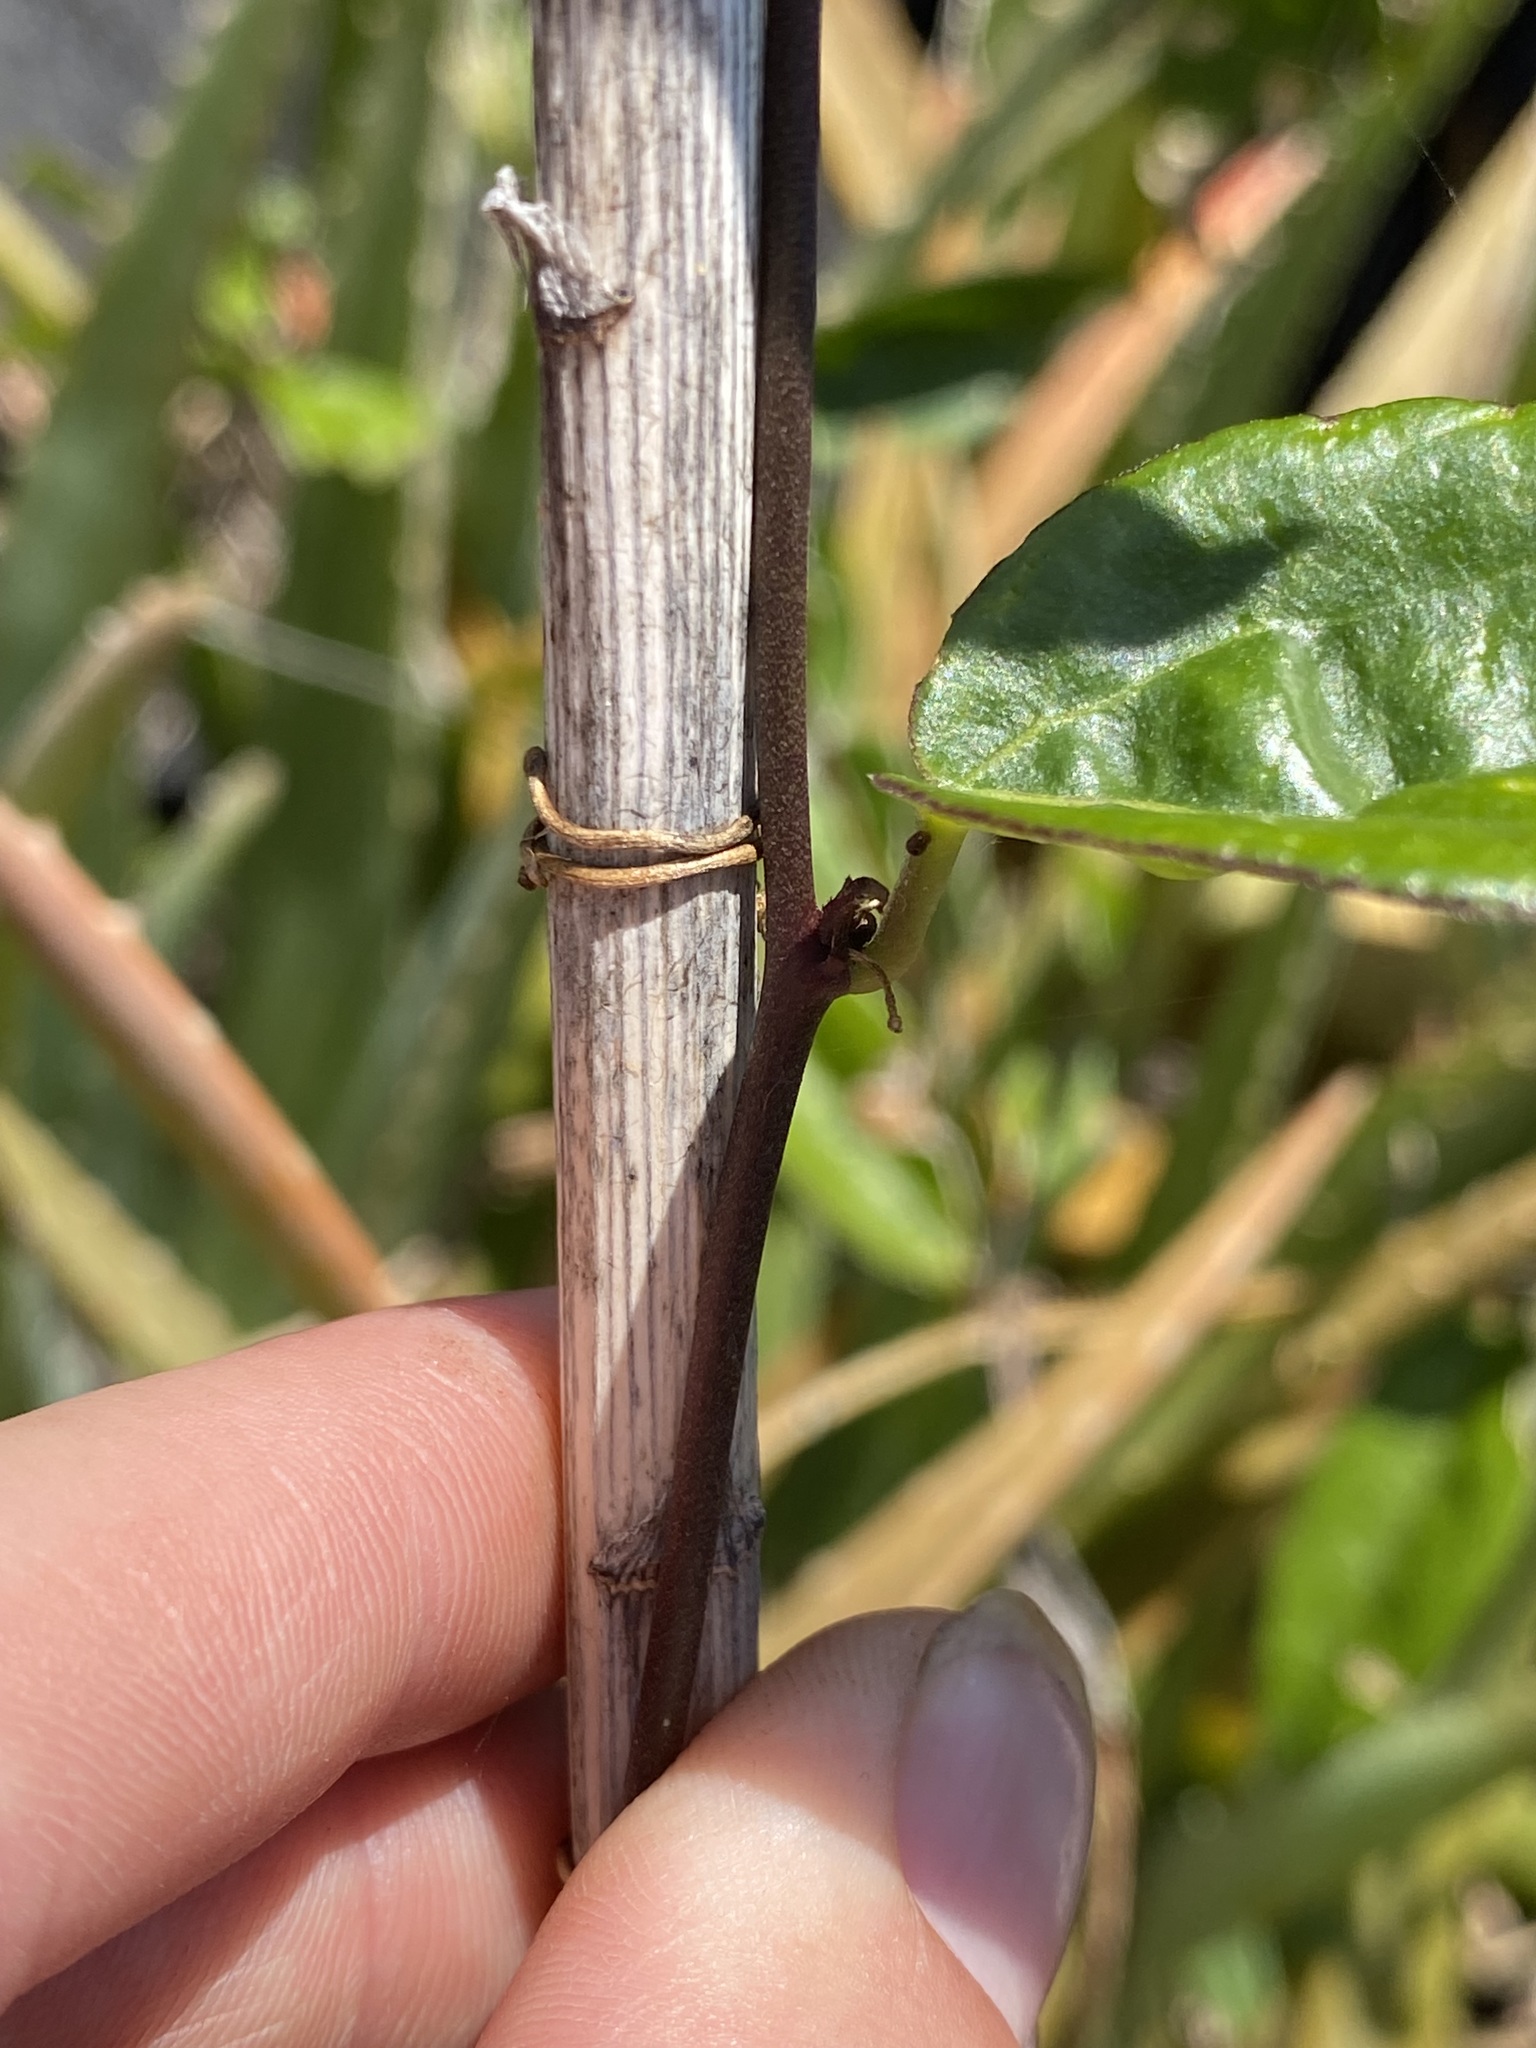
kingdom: Plantae
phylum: Tracheophyta
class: Magnoliopsida
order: Malpighiales
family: Passifloraceae
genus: Passiflora
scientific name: Passiflora pallida
